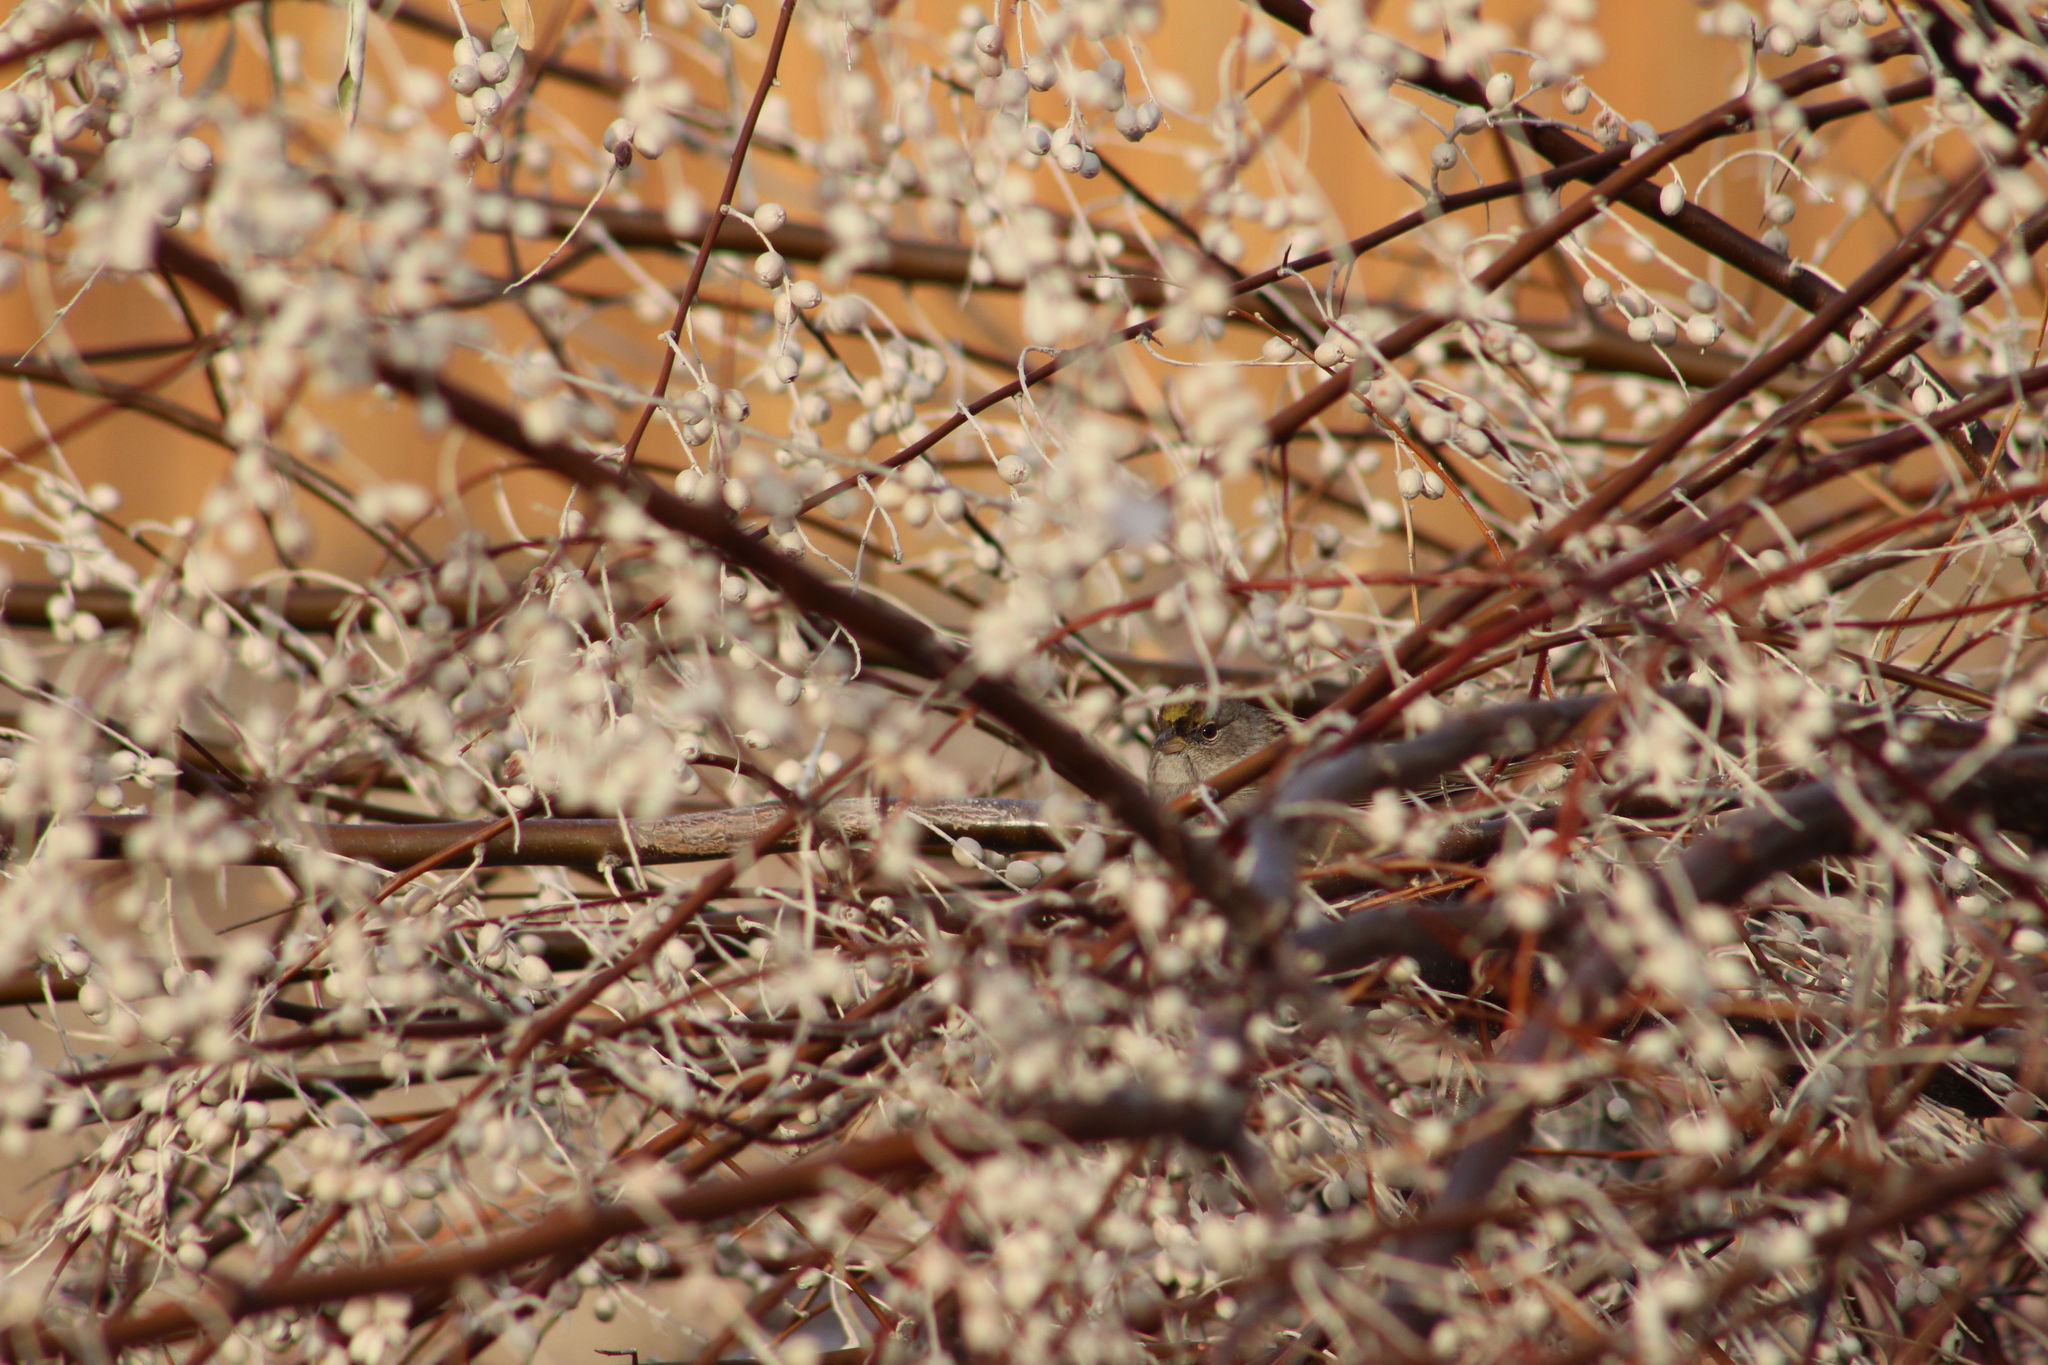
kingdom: Animalia
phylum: Chordata
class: Aves
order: Passeriformes
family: Passerellidae
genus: Zonotrichia
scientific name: Zonotrichia atricapilla
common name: Golden-crowned sparrow
